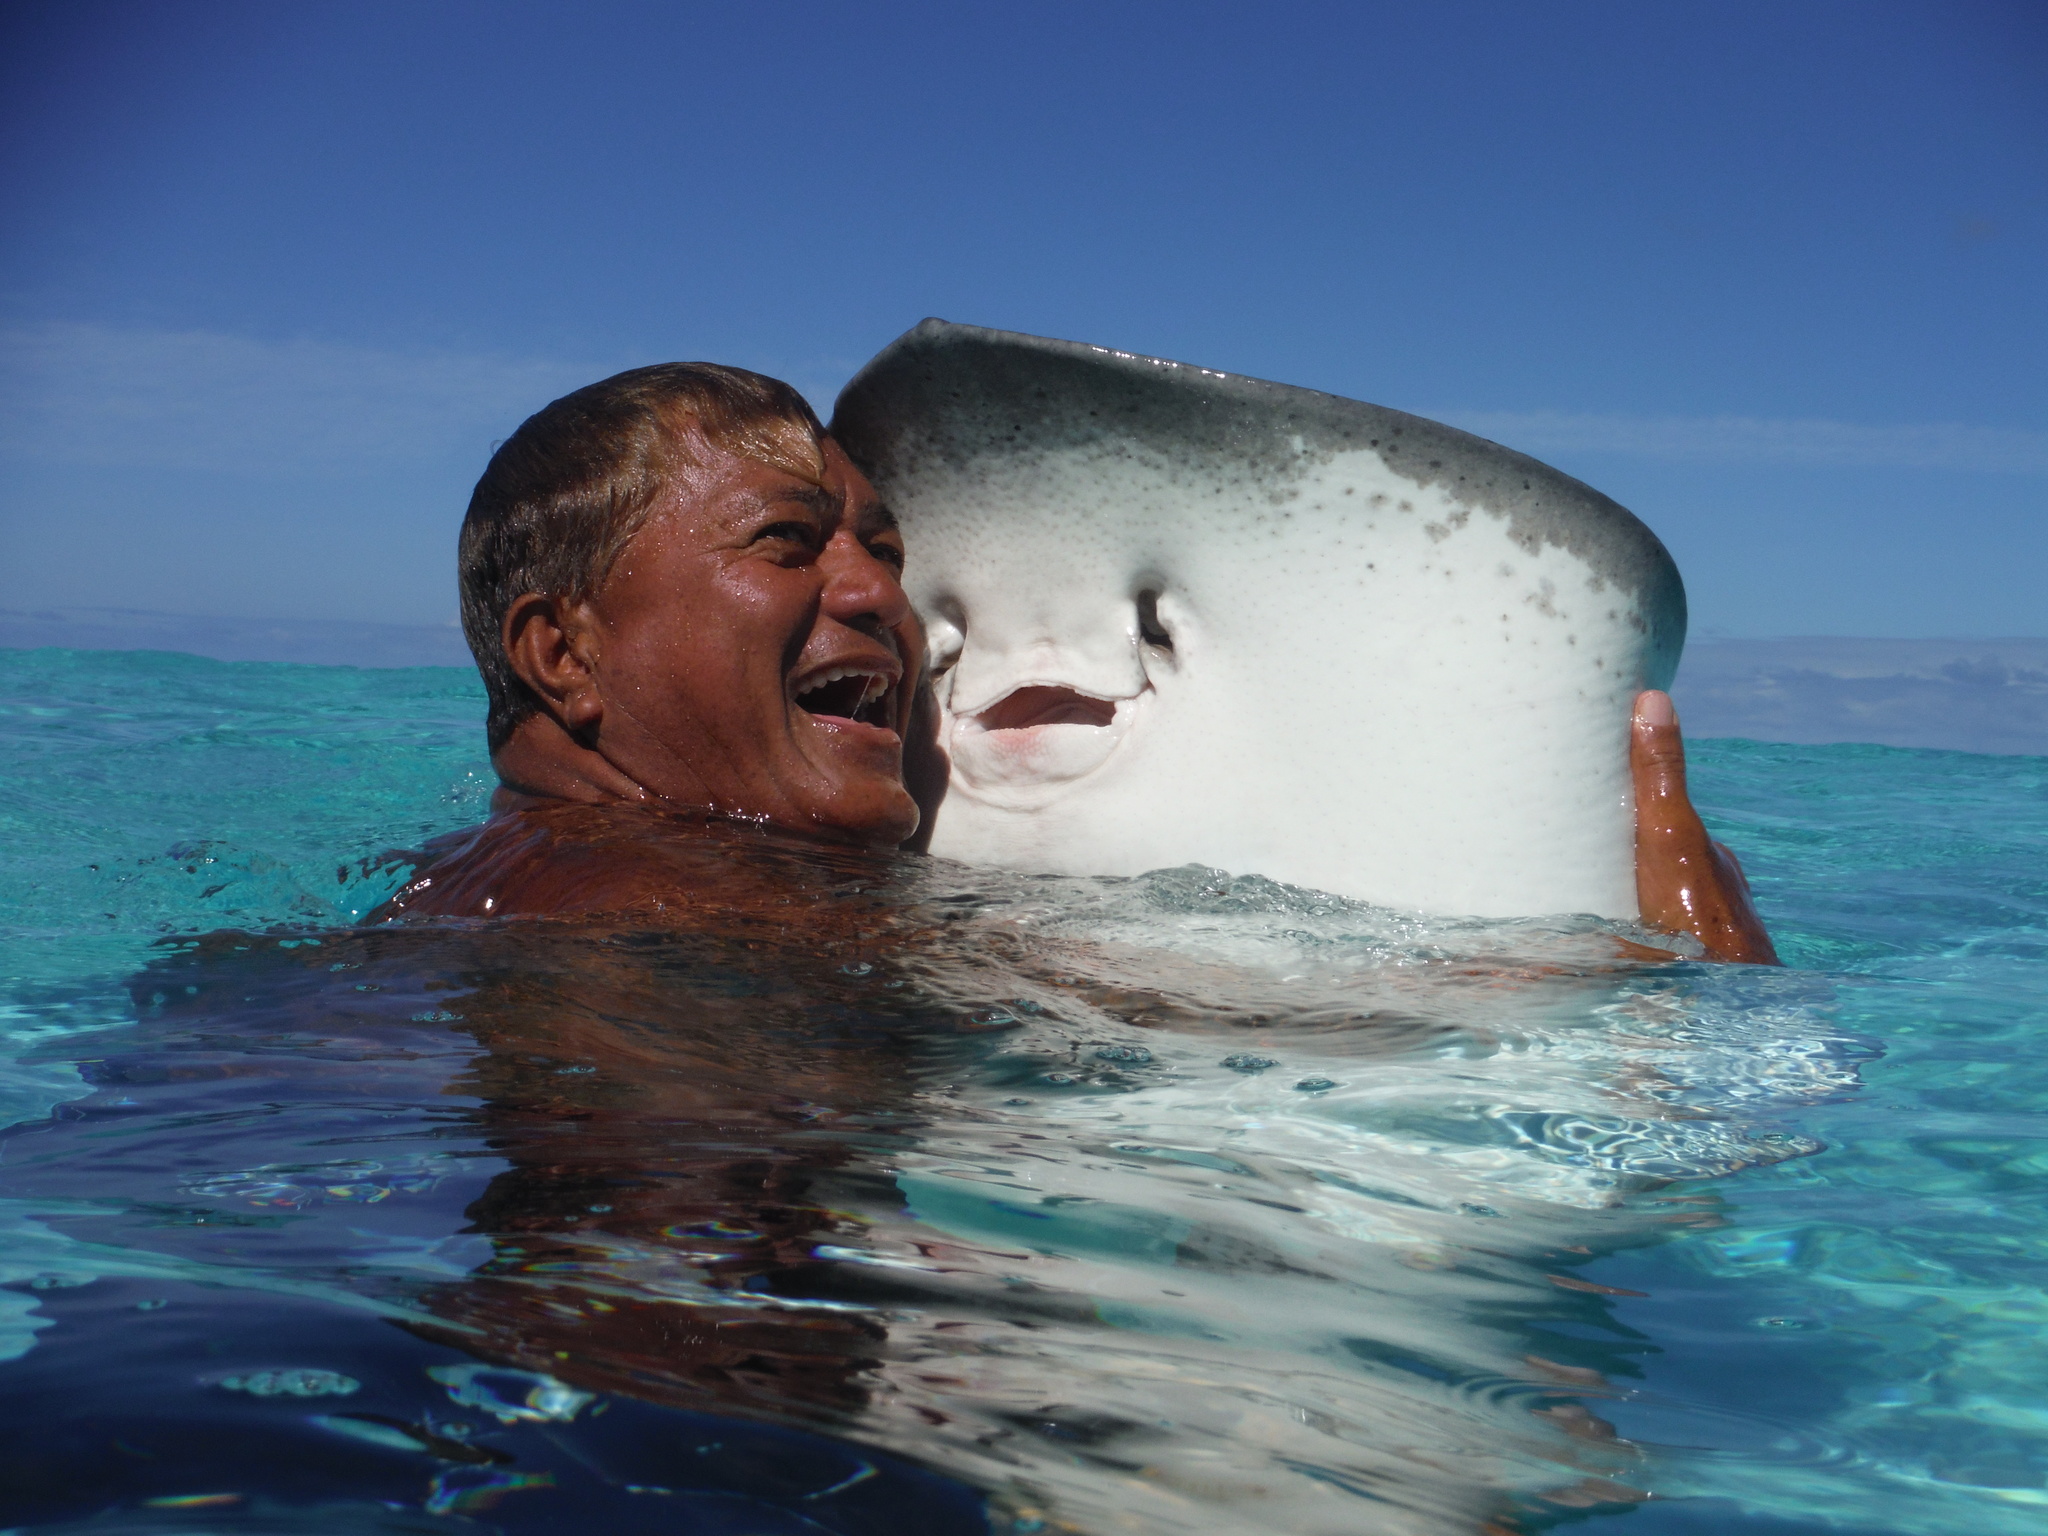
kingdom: Animalia
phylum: Chordata
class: Elasmobranchii
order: Myliobatiformes
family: Dasyatidae
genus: Pateobatis
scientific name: Pateobatis fai
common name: Pink whipray
